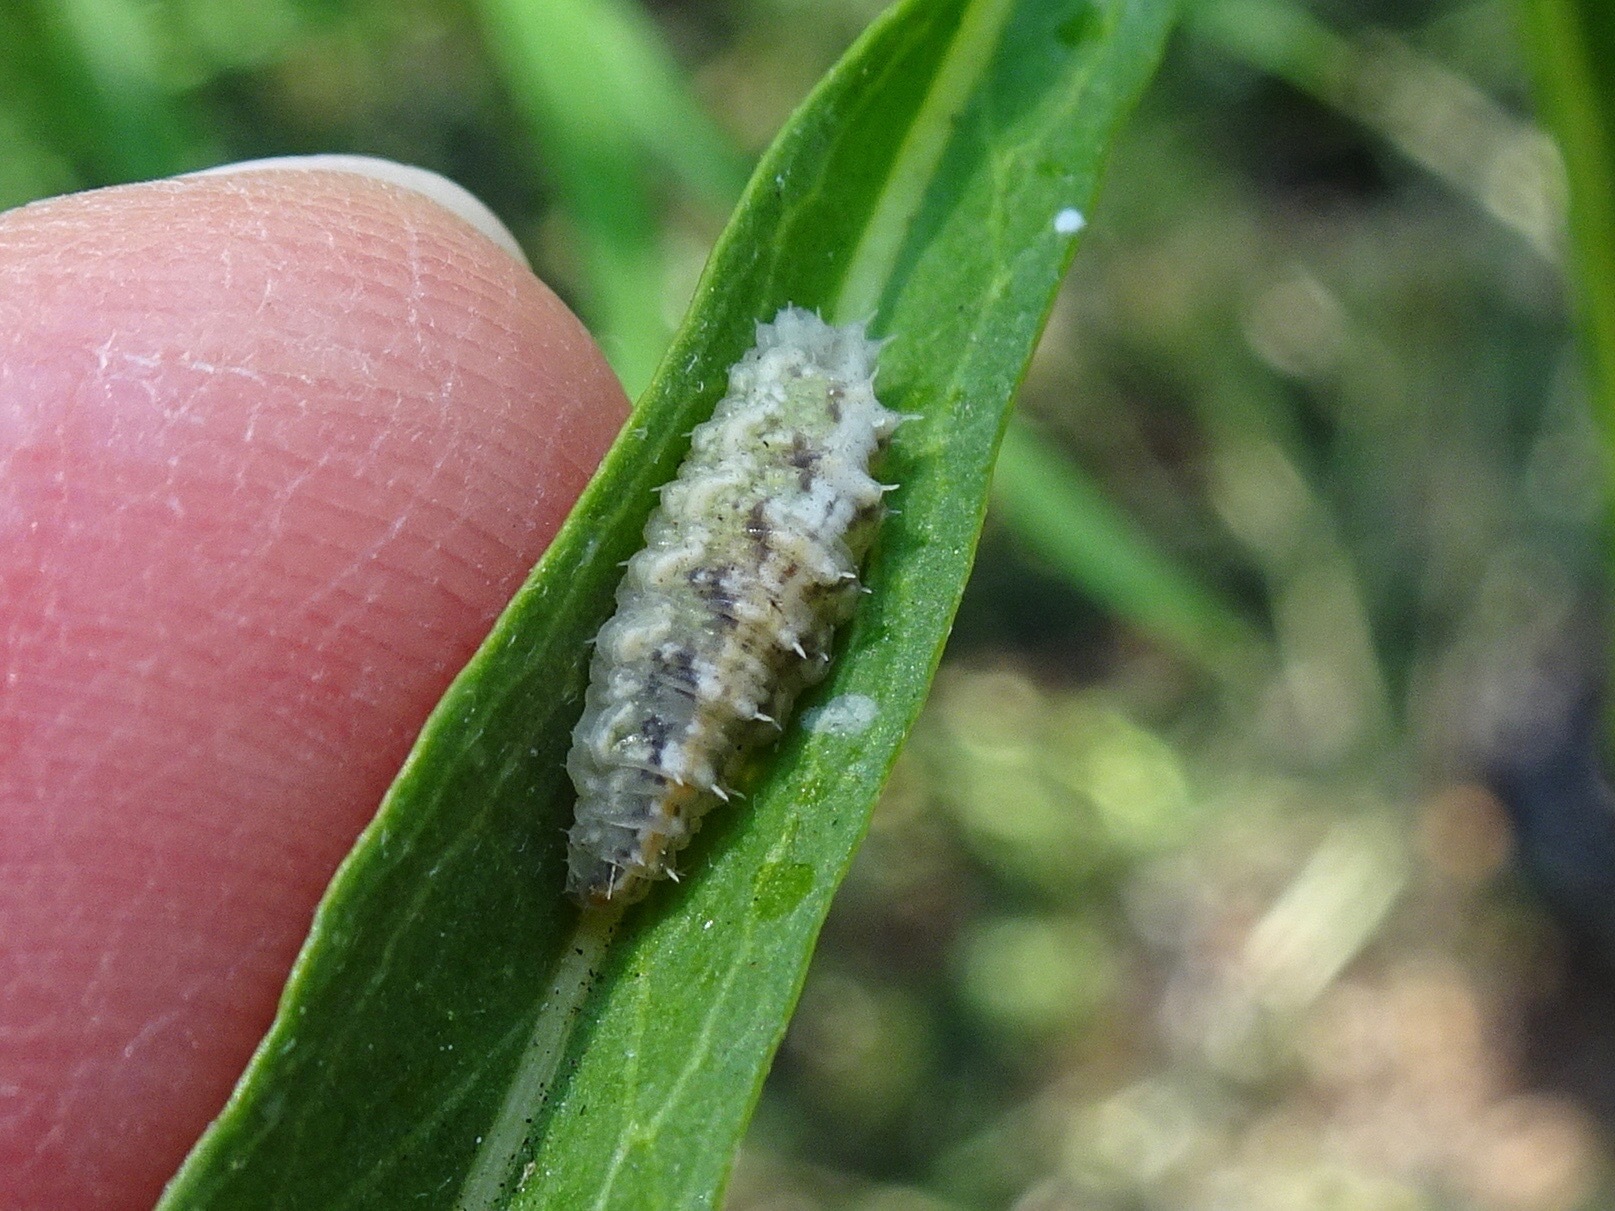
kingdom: Animalia
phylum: Arthropoda
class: Insecta
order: Diptera
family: Syrphidae
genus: Dioprosopa
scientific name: Dioprosopa clavatus
